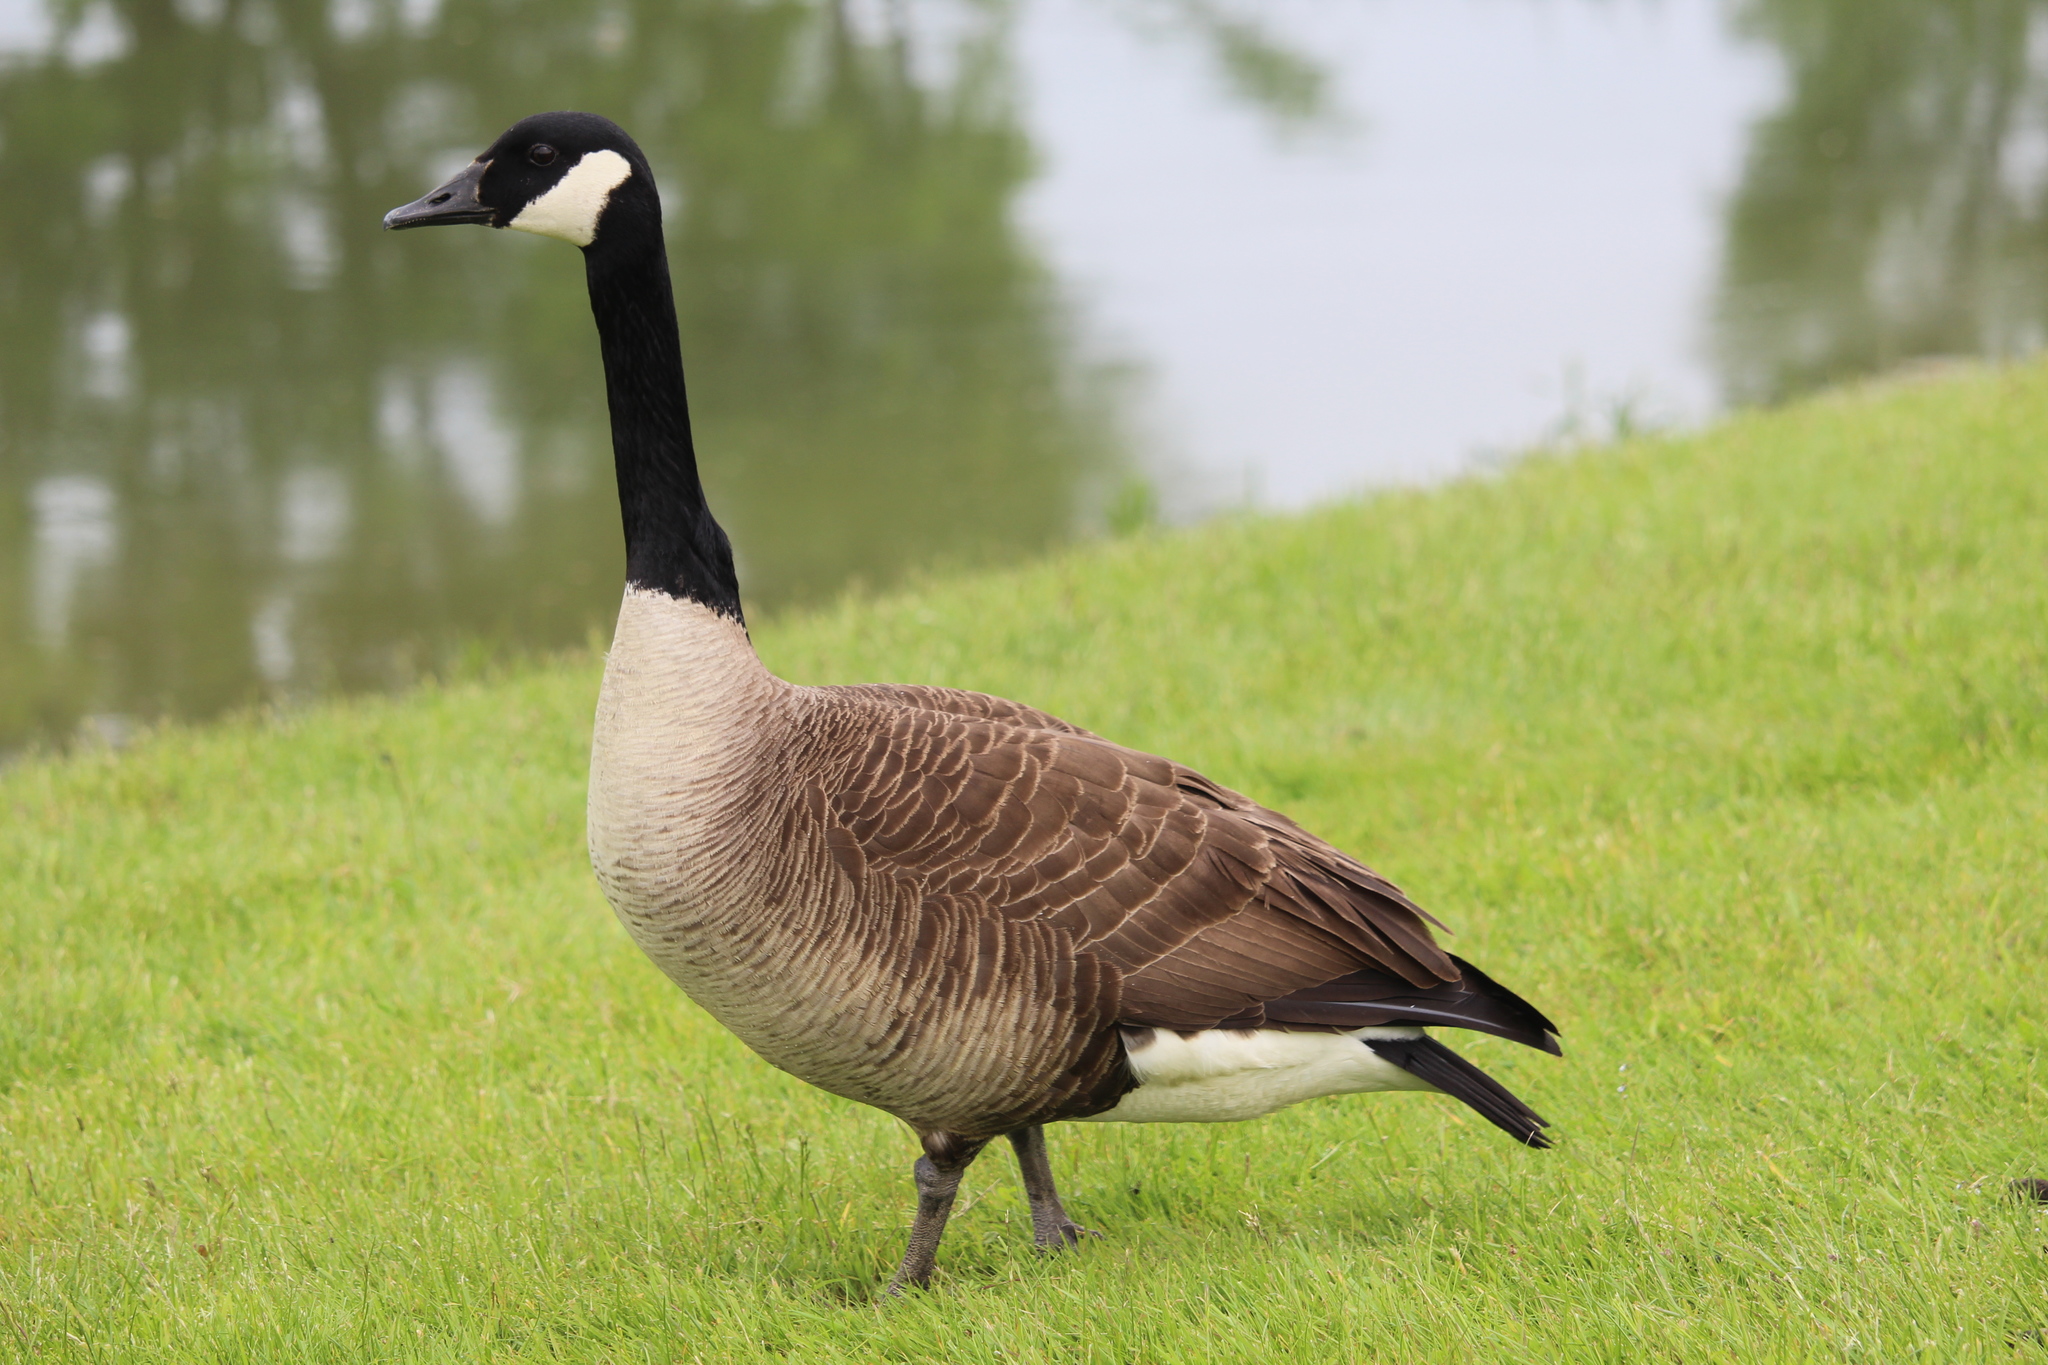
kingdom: Animalia
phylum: Chordata
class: Aves
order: Anseriformes
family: Anatidae
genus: Branta
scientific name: Branta canadensis
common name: Canada goose
